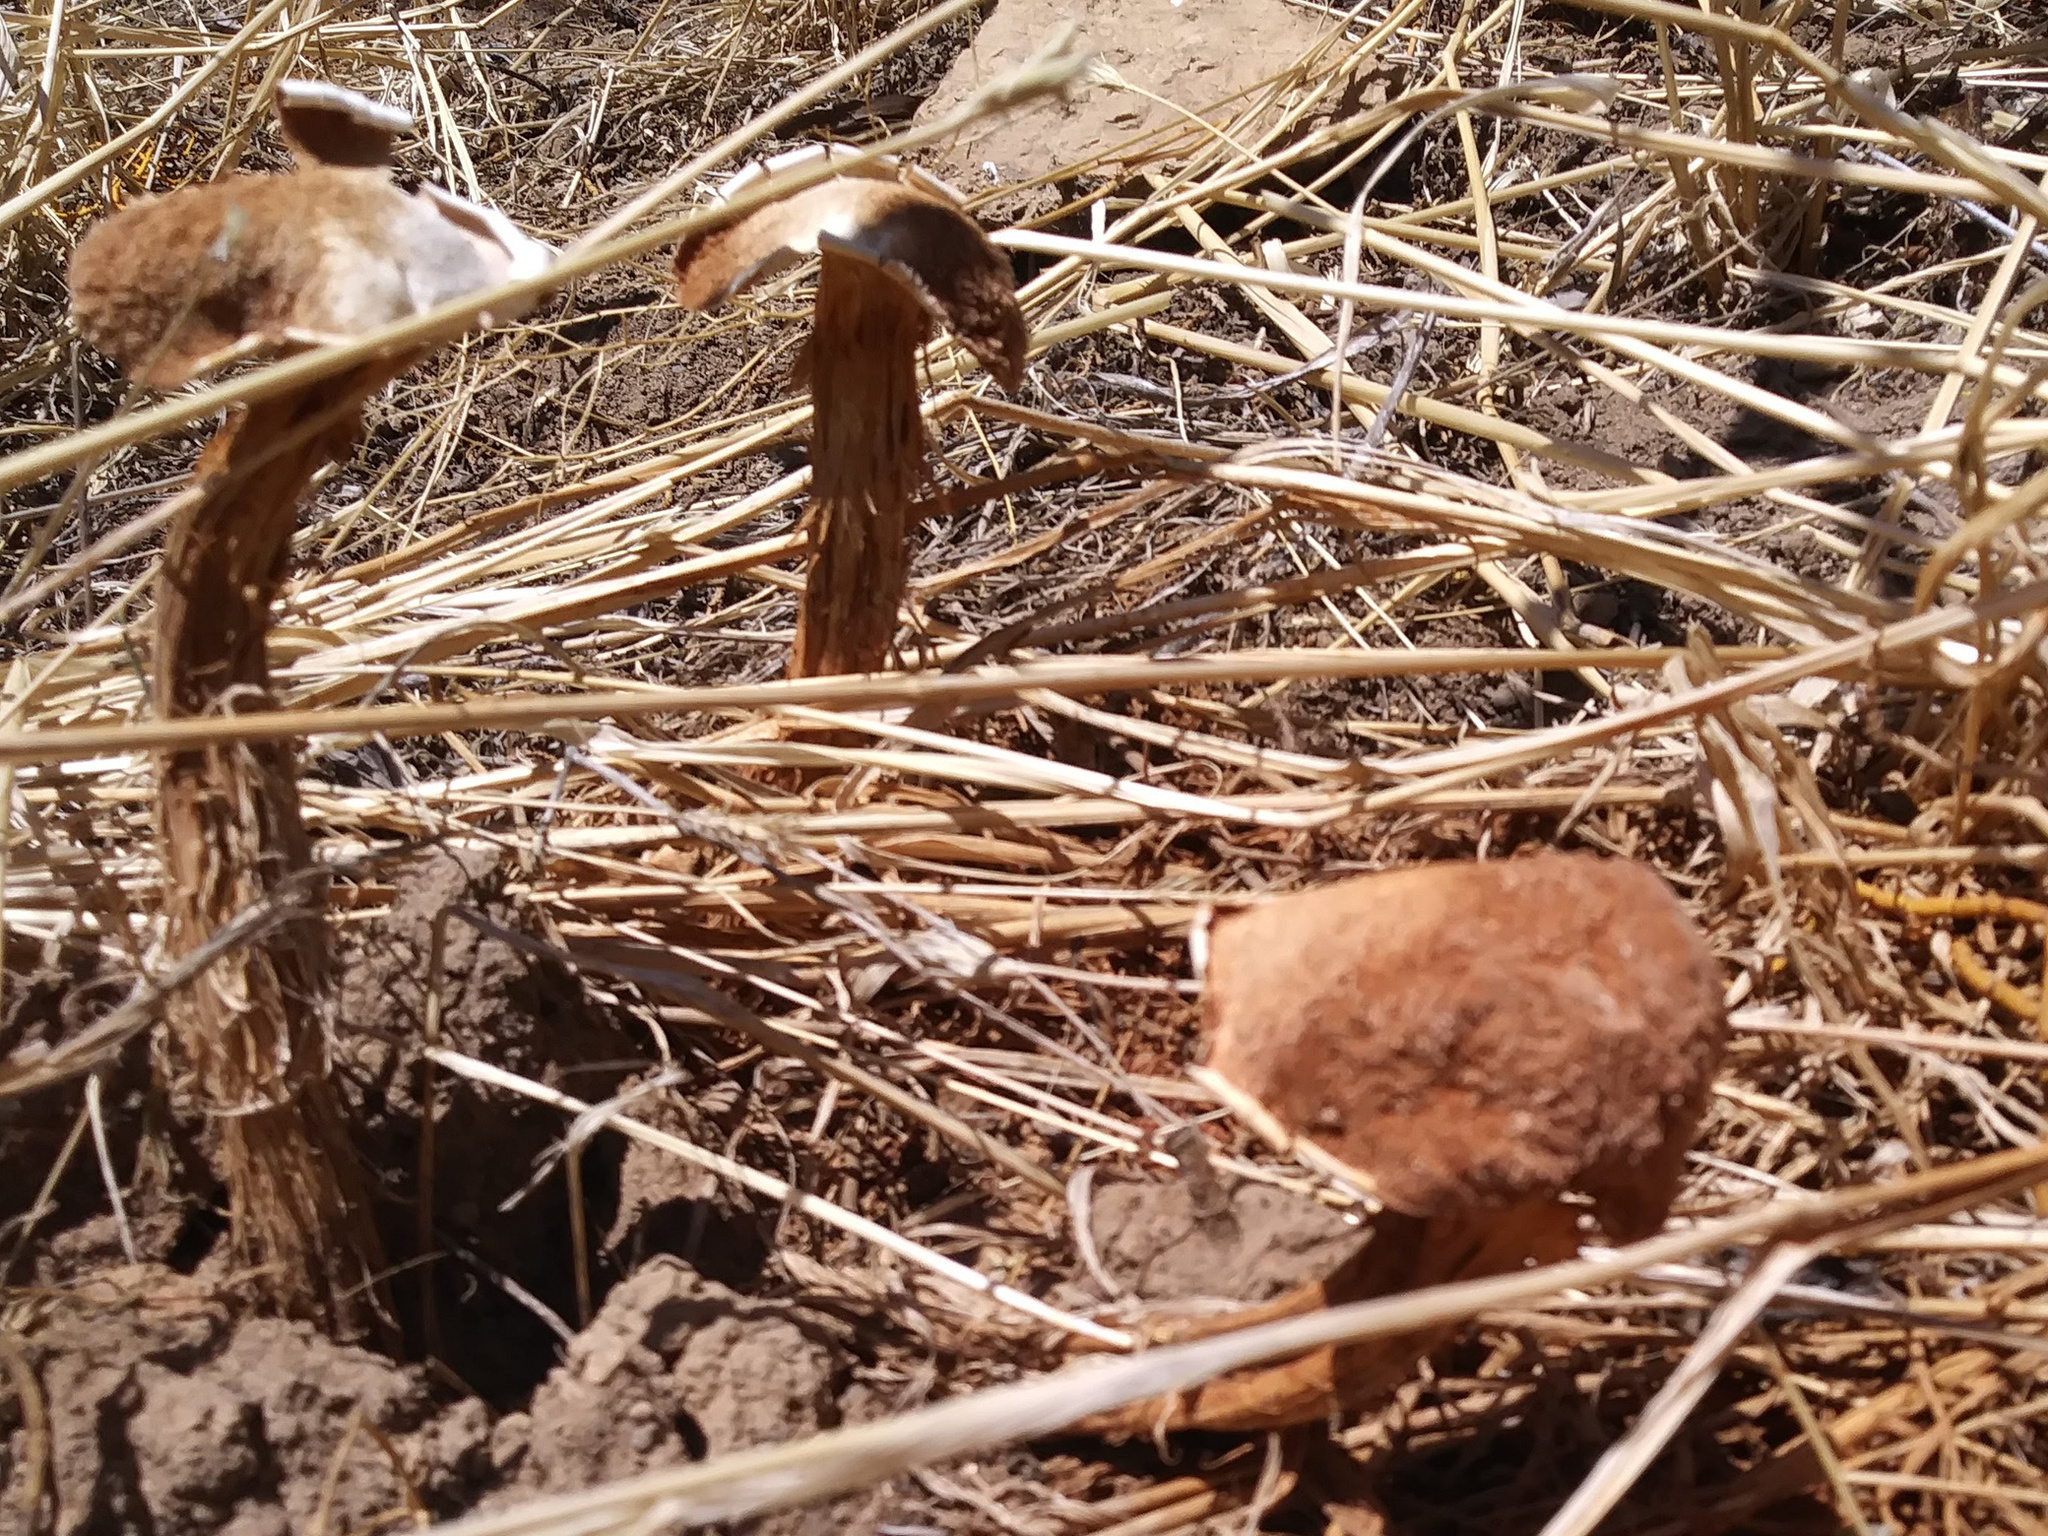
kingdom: Fungi
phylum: Basidiomycota
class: Agaricomycetes
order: Agaricales
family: Agaricaceae
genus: Battarrea
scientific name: Battarrea phalloides
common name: Sandy stiltball
